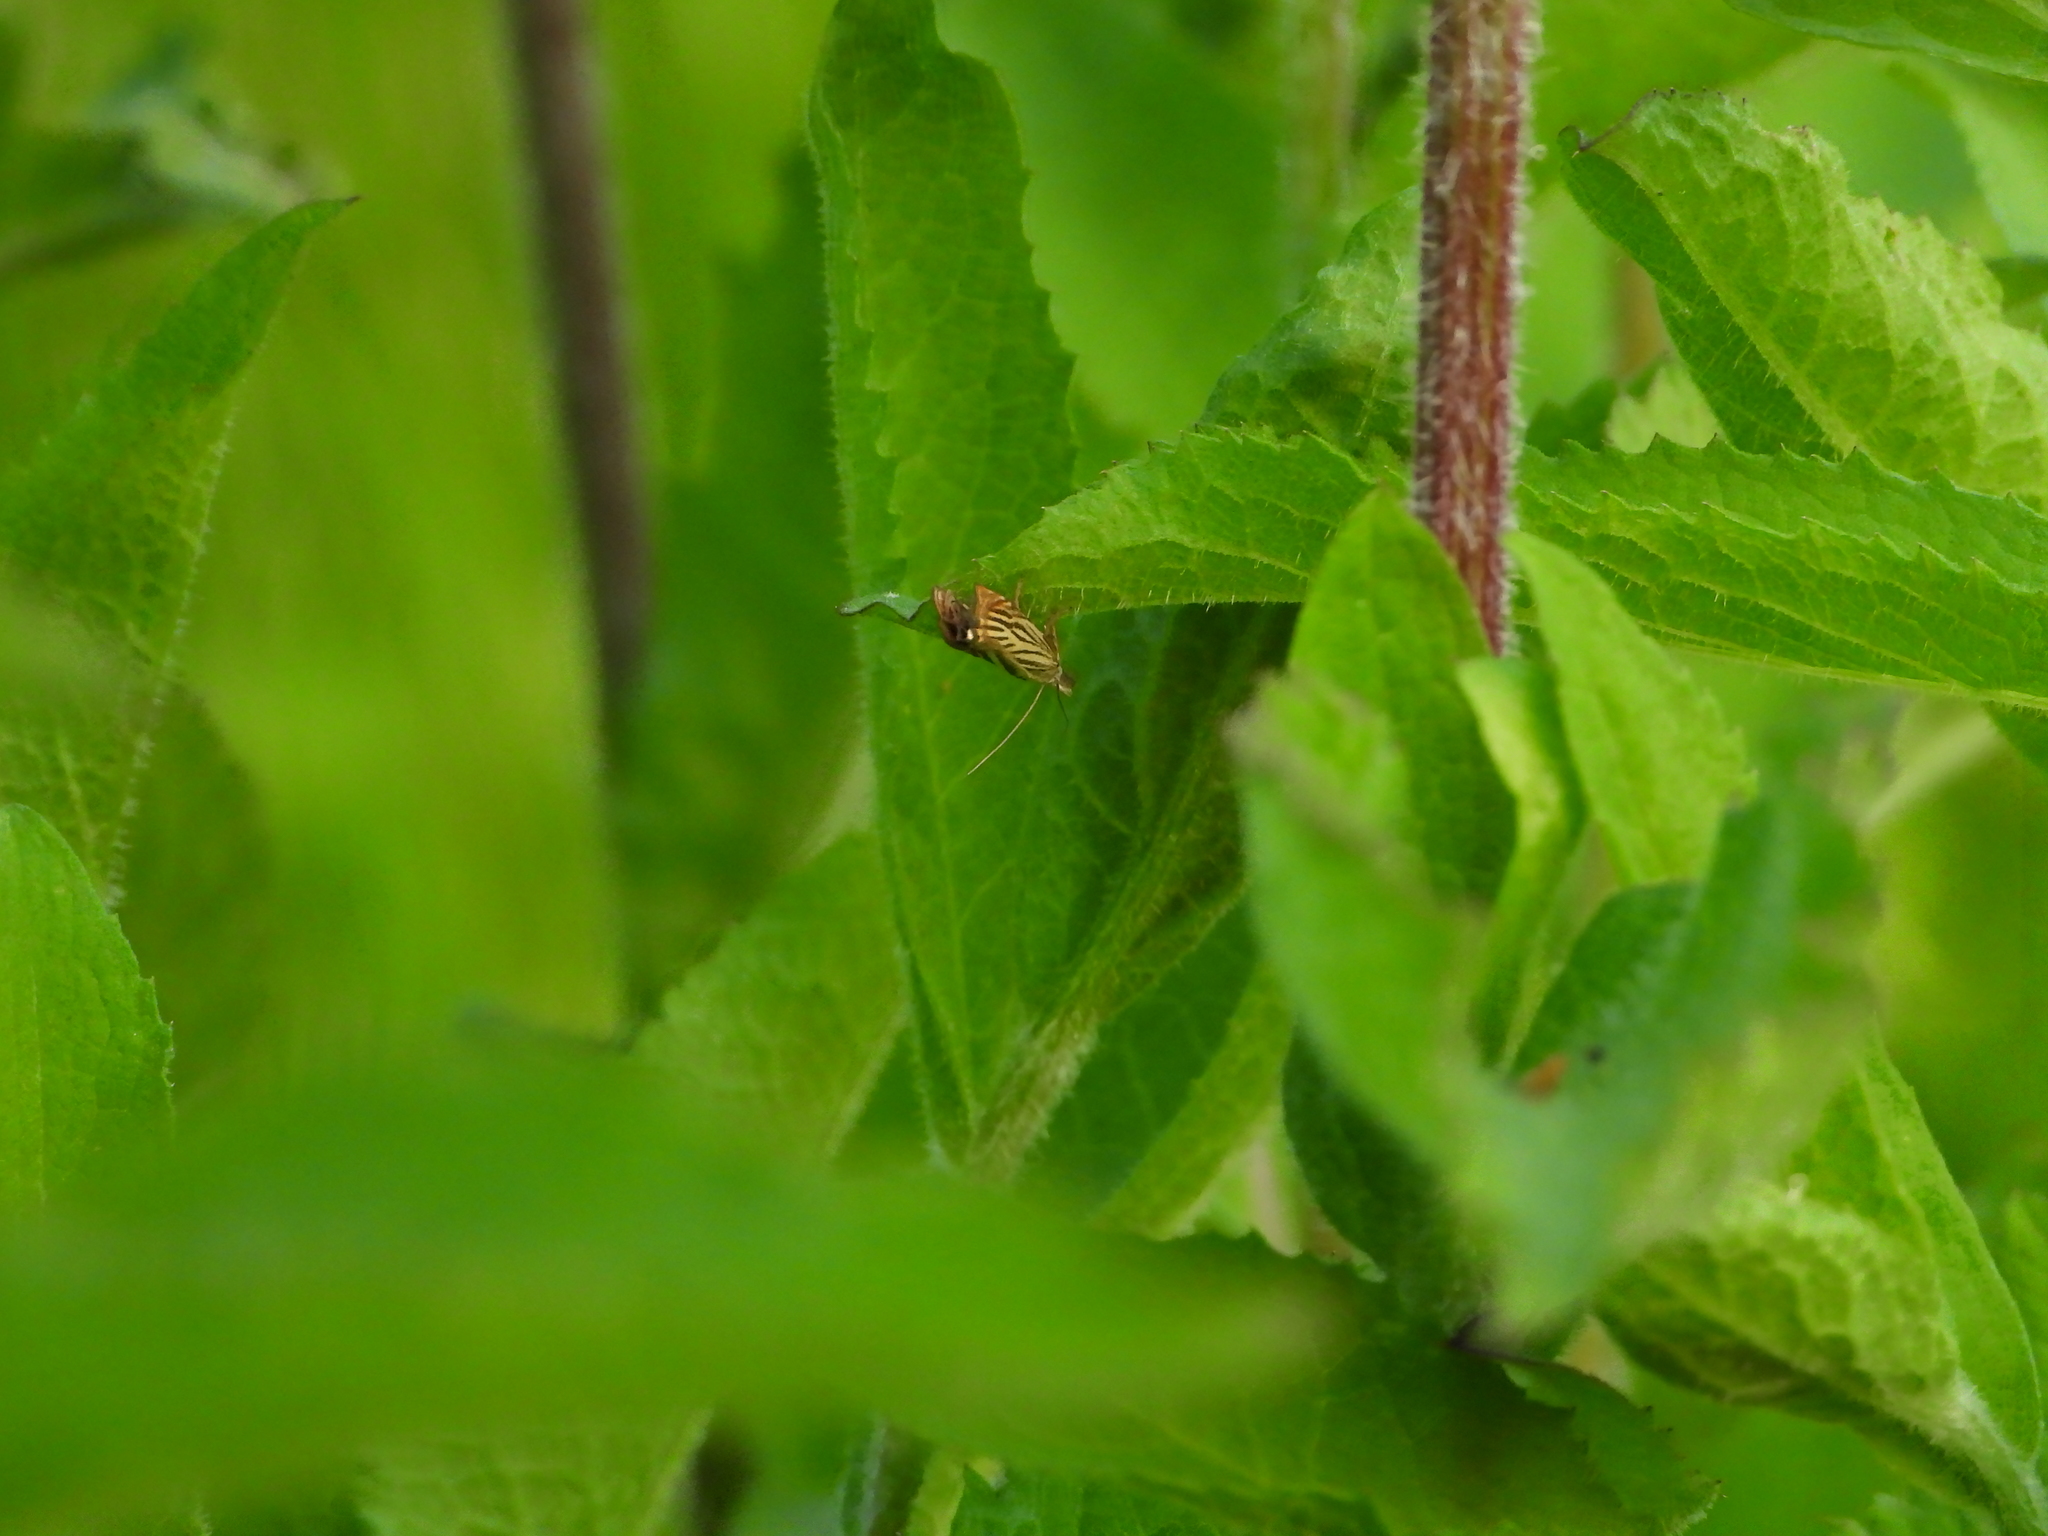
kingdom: Animalia
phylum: Arthropoda
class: Insecta
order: Lepidoptera
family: Crambidae
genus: Chrysoteuchia
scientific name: Chrysoteuchia culmella
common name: Garden grass-veneer
